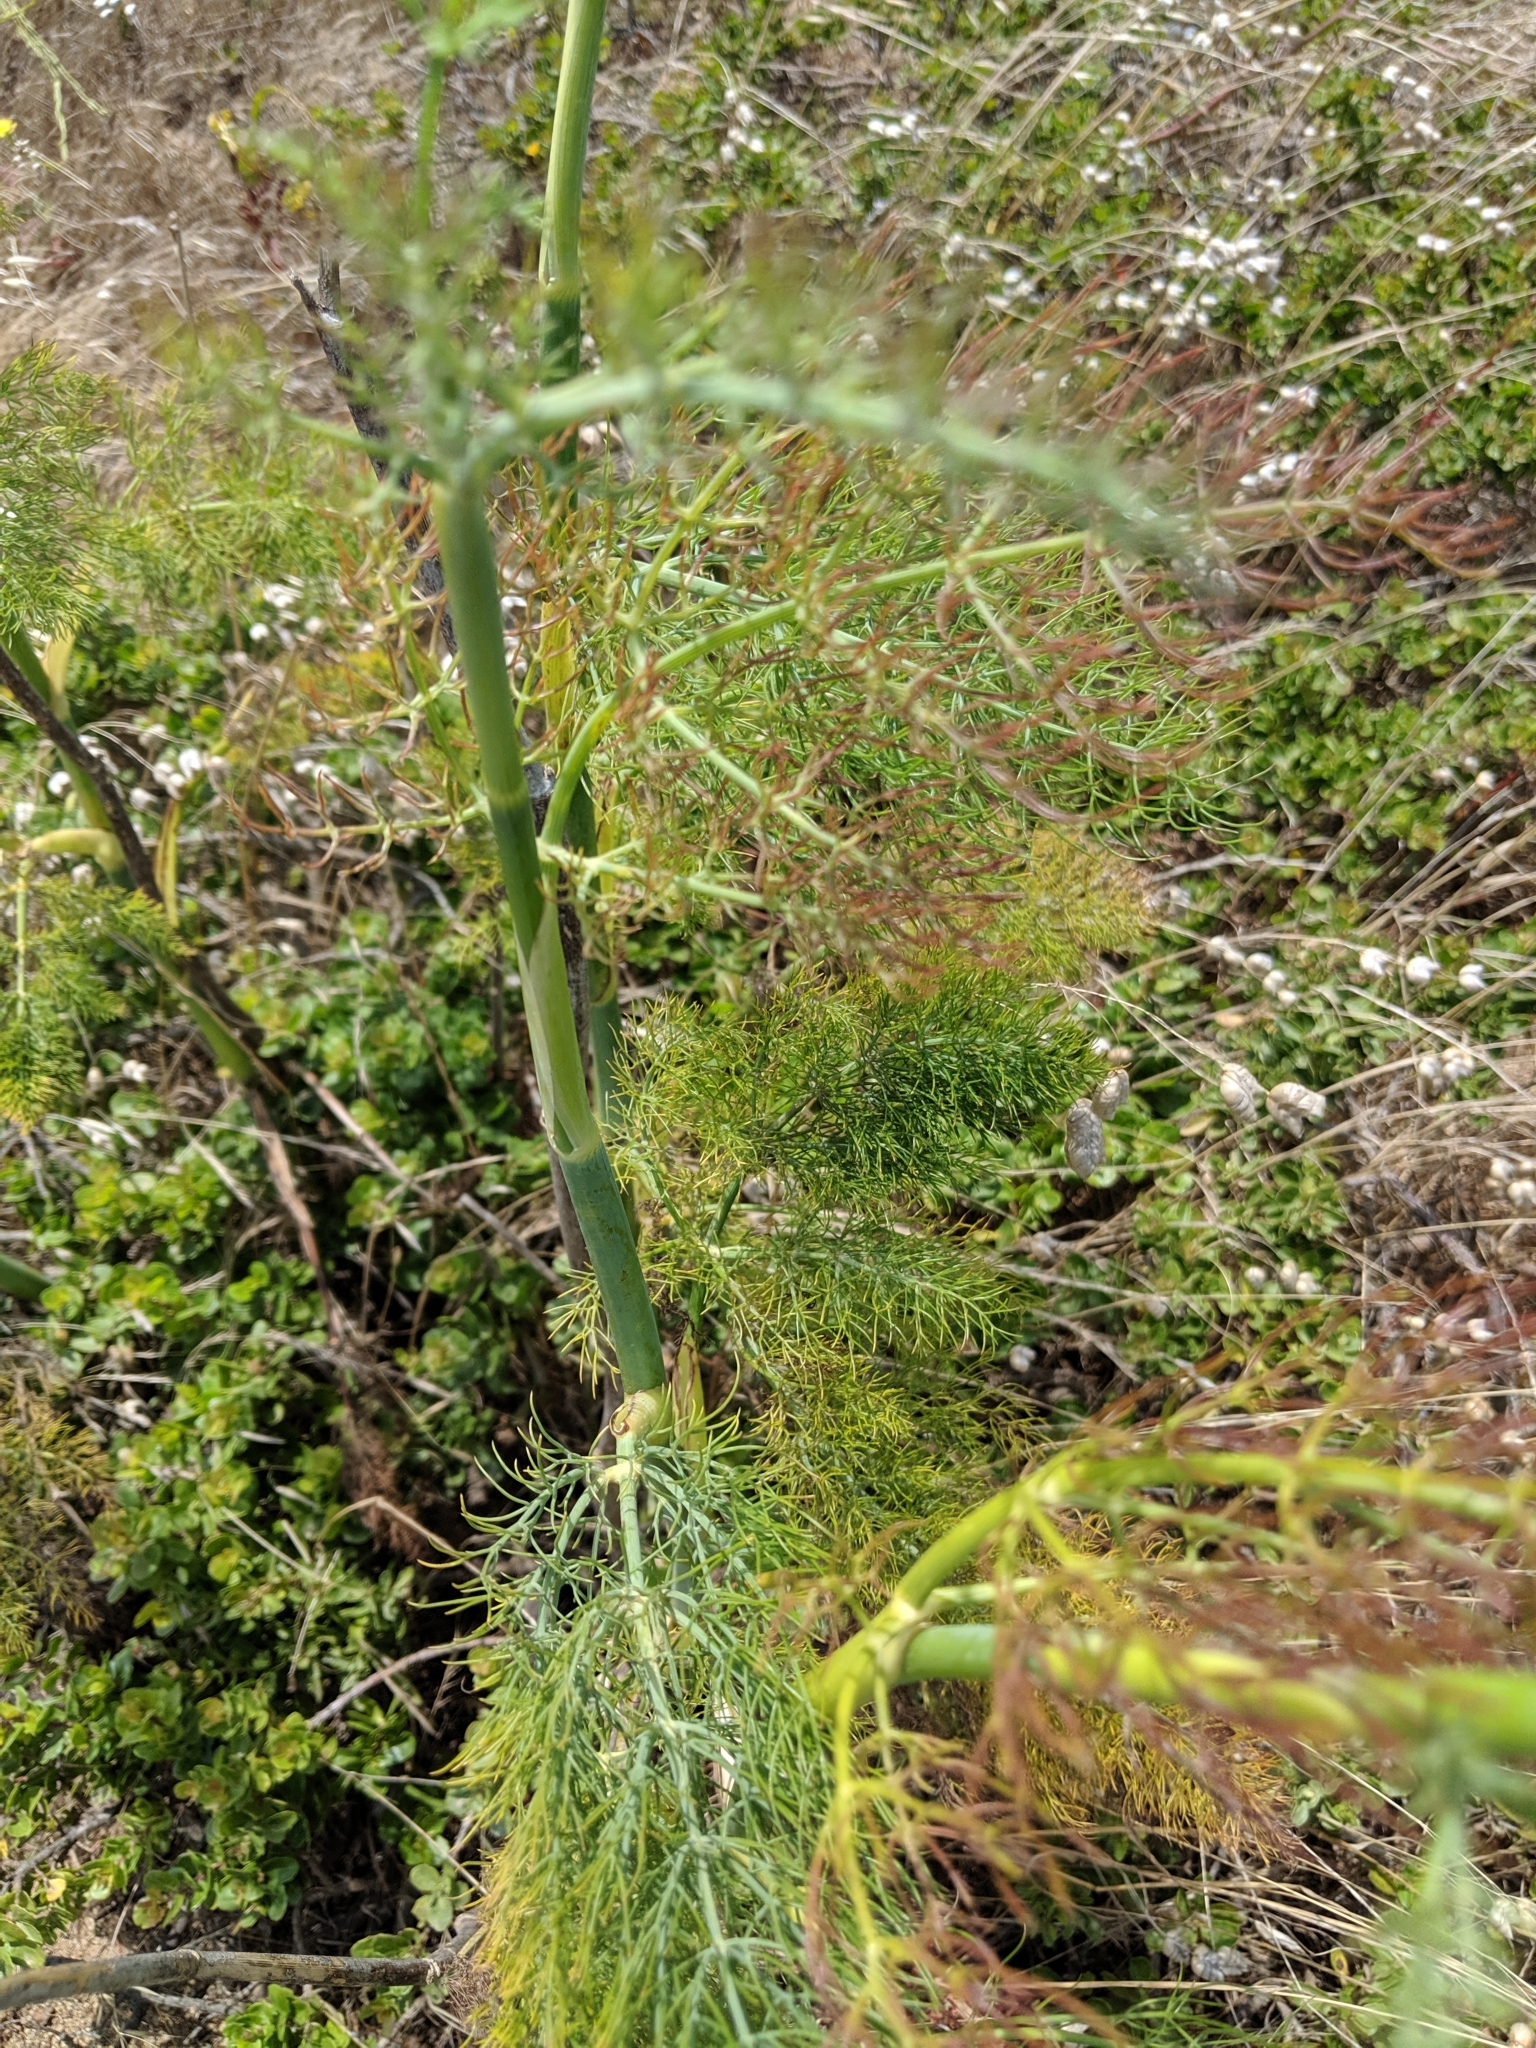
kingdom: Plantae
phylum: Tracheophyta
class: Magnoliopsida
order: Apiales
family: Apiaceae
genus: Foeniculum
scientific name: Foeniculum vulgare
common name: Fennel
